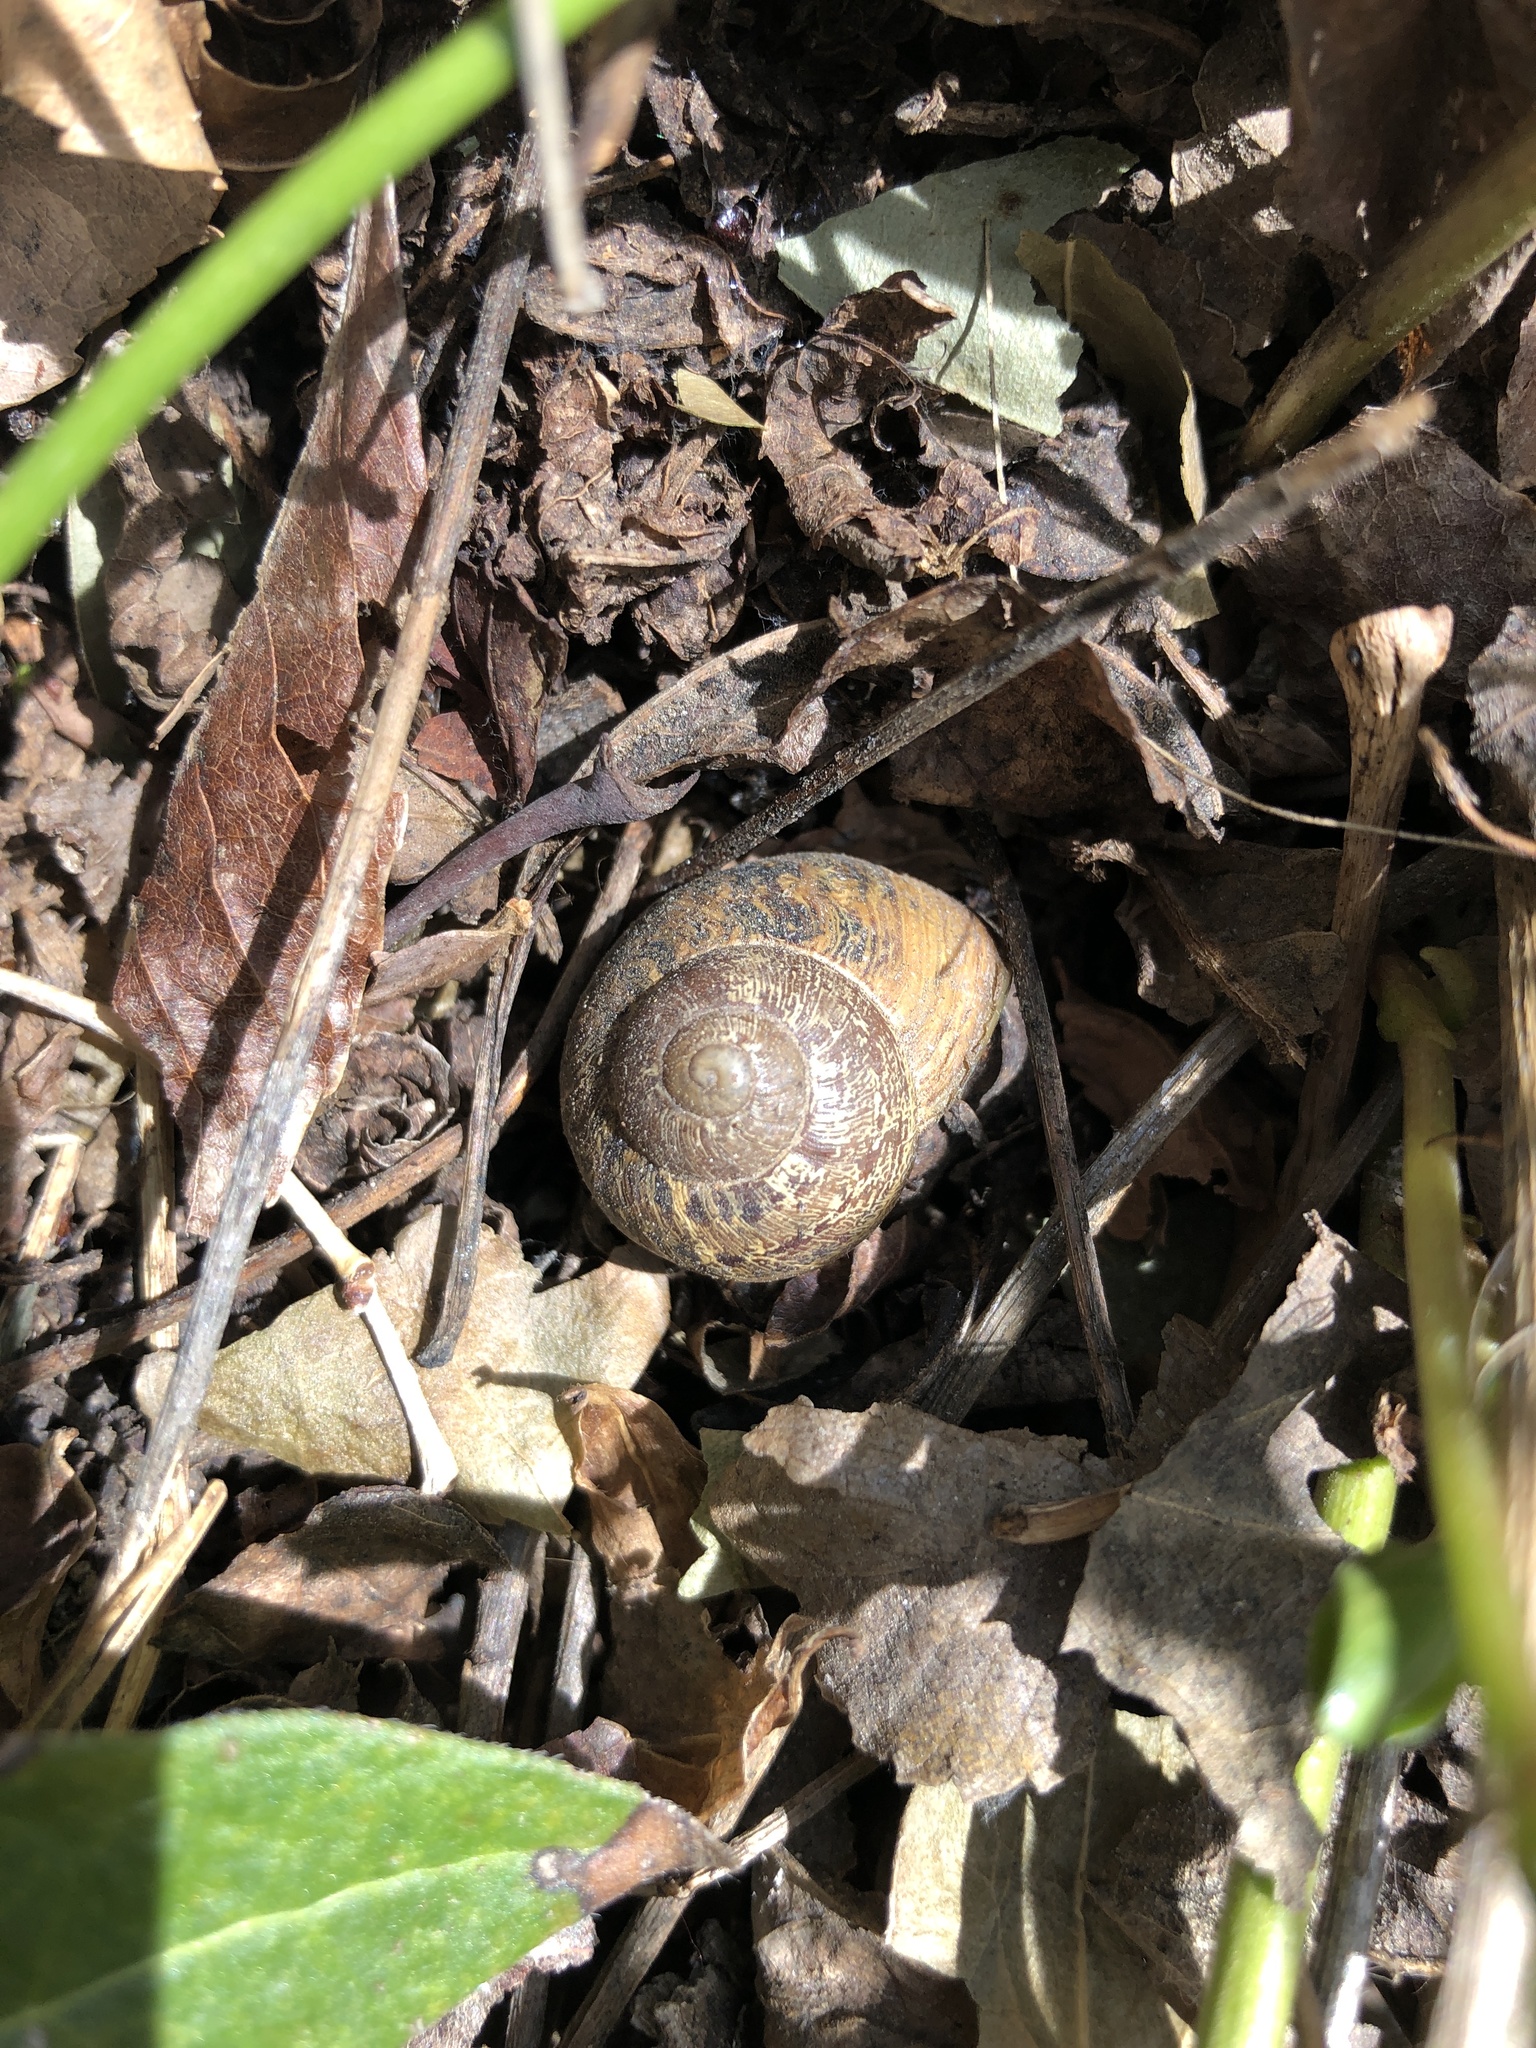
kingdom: Animalia
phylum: Mollusca
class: Gastropoda
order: Stylommatophora
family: Helicidae
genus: Cornu
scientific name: Cornu aspersum
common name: Brown garden snail
